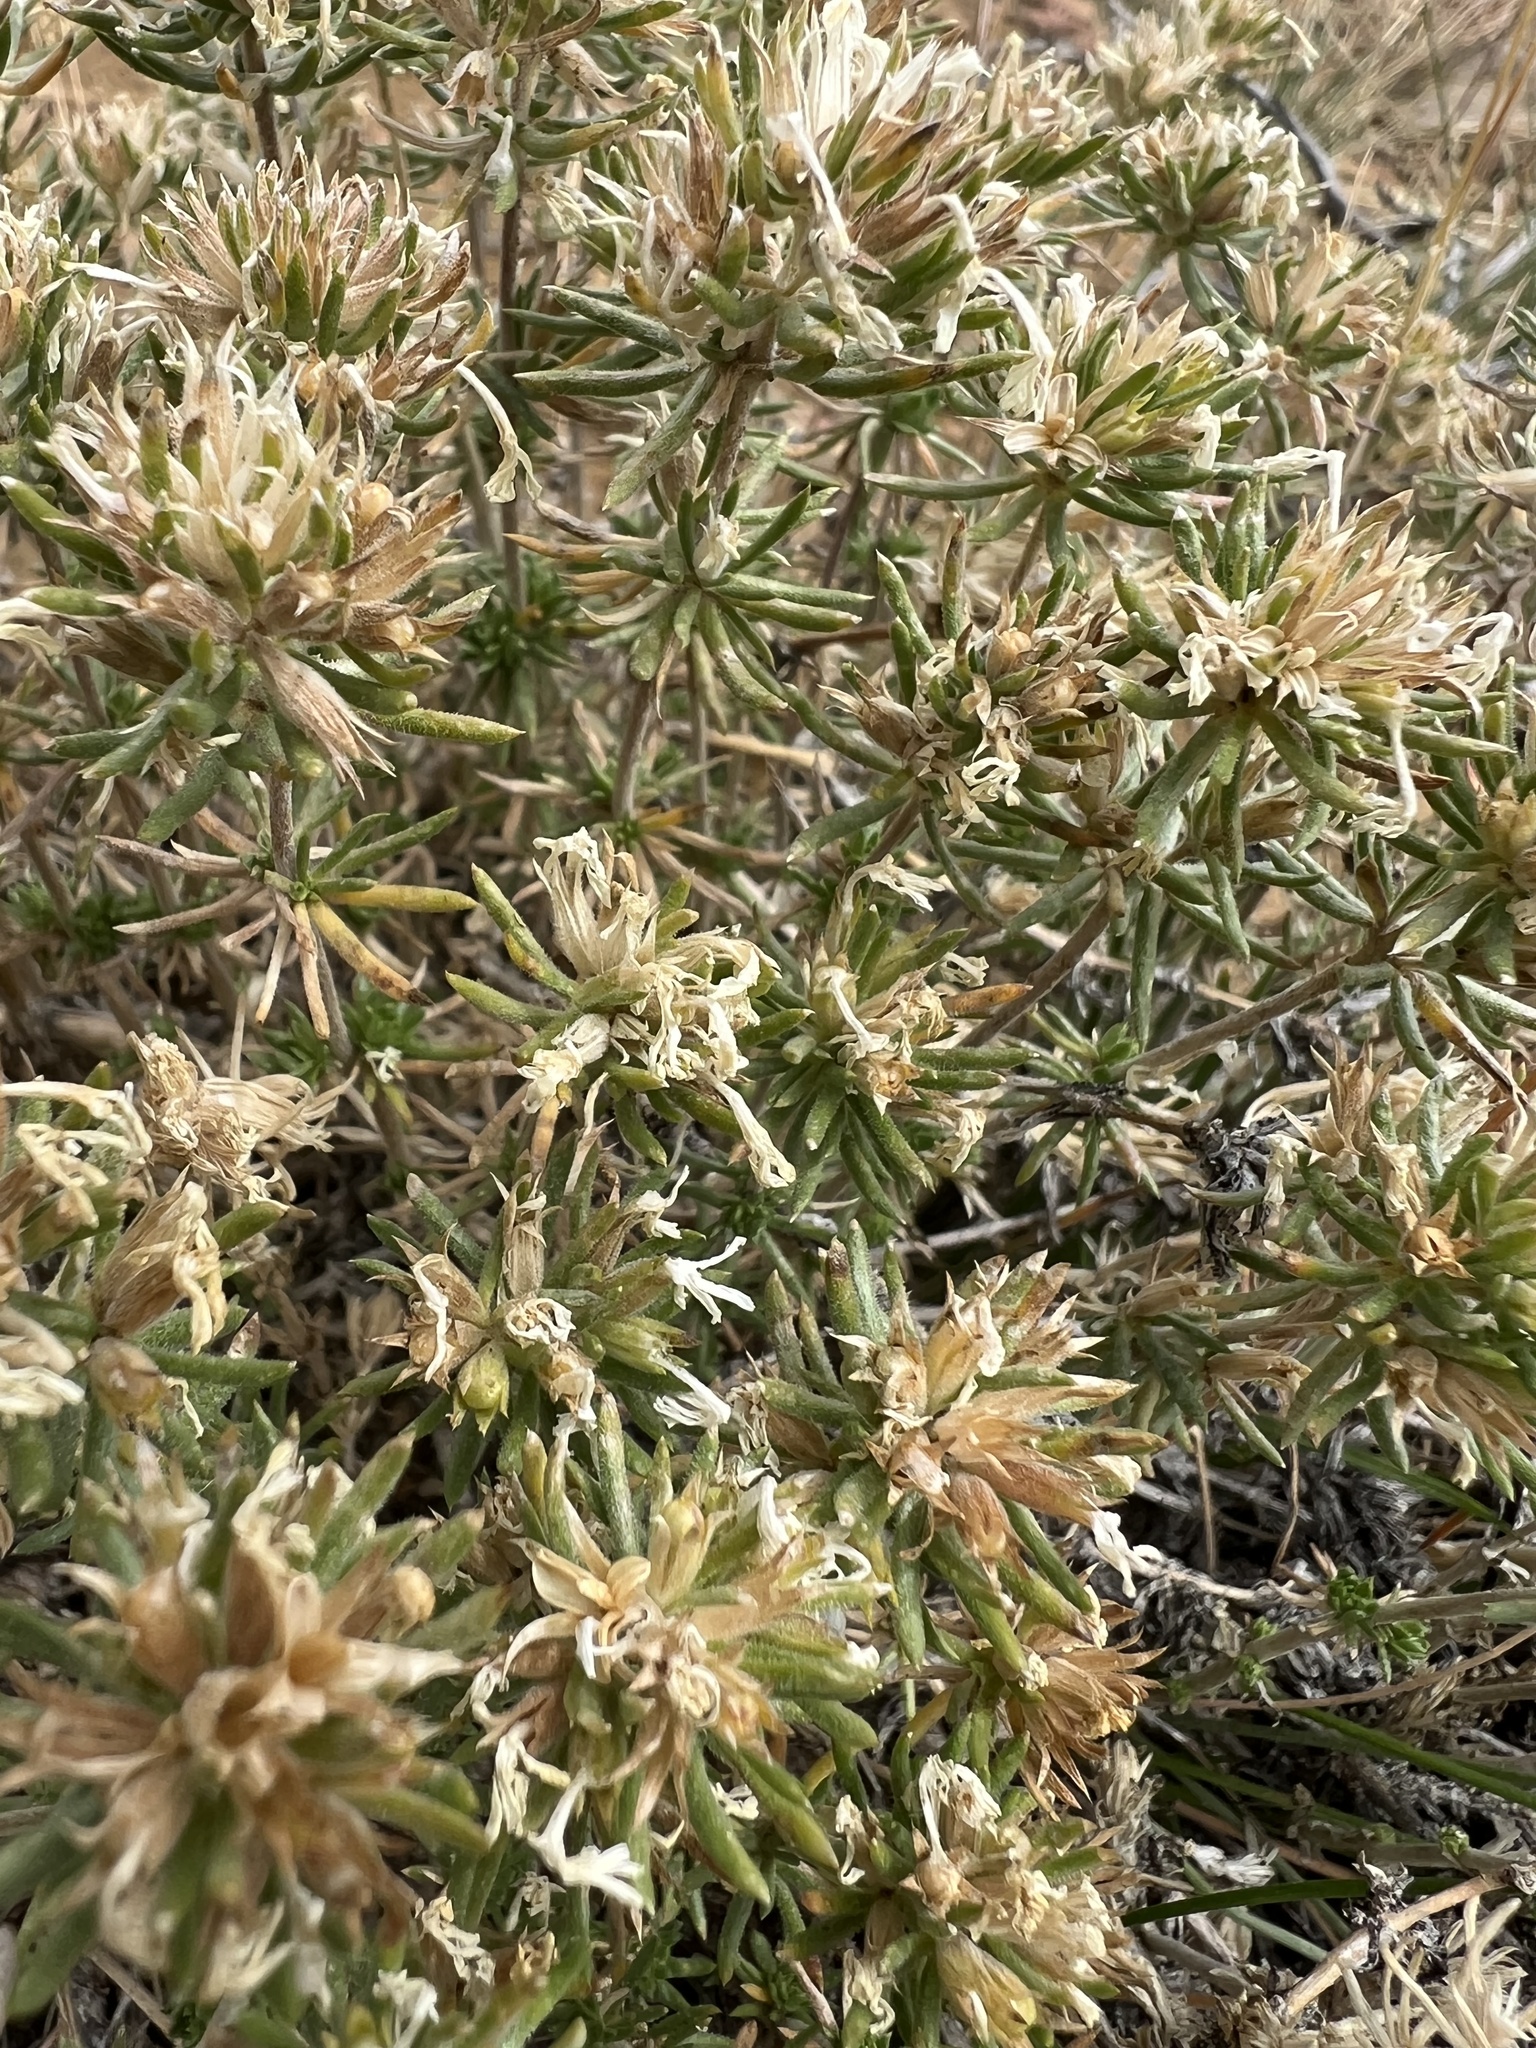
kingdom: Plantae
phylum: Tracheophyta
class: Magnoliopsida
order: Ericales
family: Polemoniaceae
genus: Leptosiphon
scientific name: Leptosiphon nuttallii
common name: Nuttall's linanthus
